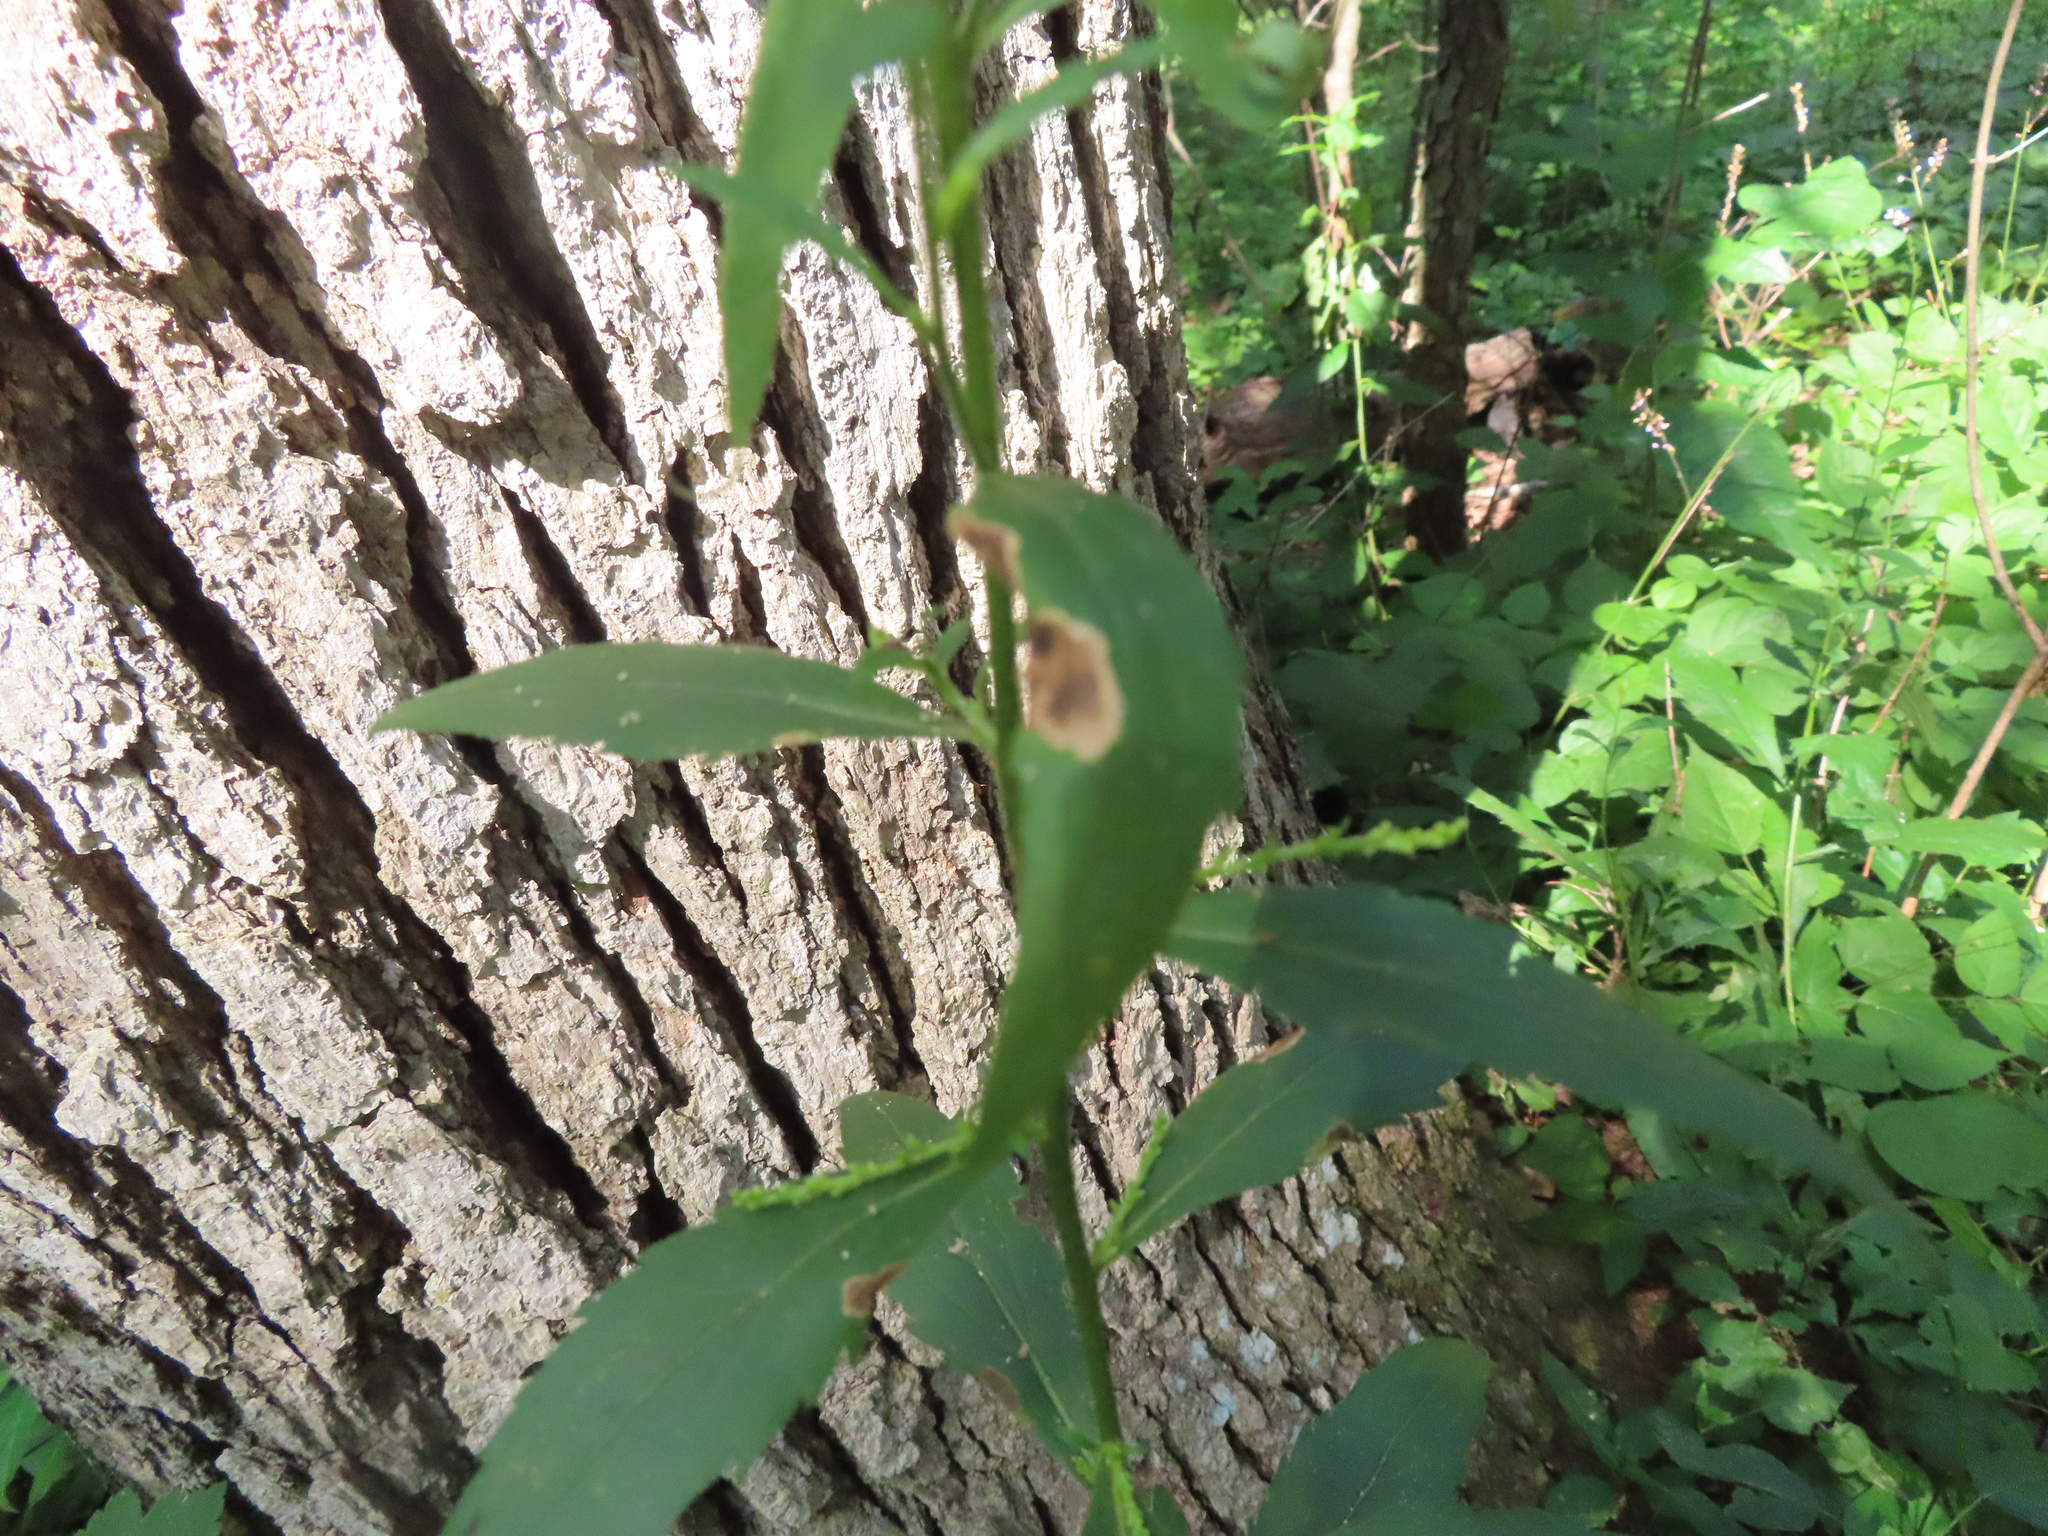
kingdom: Animalia
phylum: Arthropoda
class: Insecta
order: Diptera
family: Agromyzidae
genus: Nemorimyza
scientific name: Nemorimyza posticata
